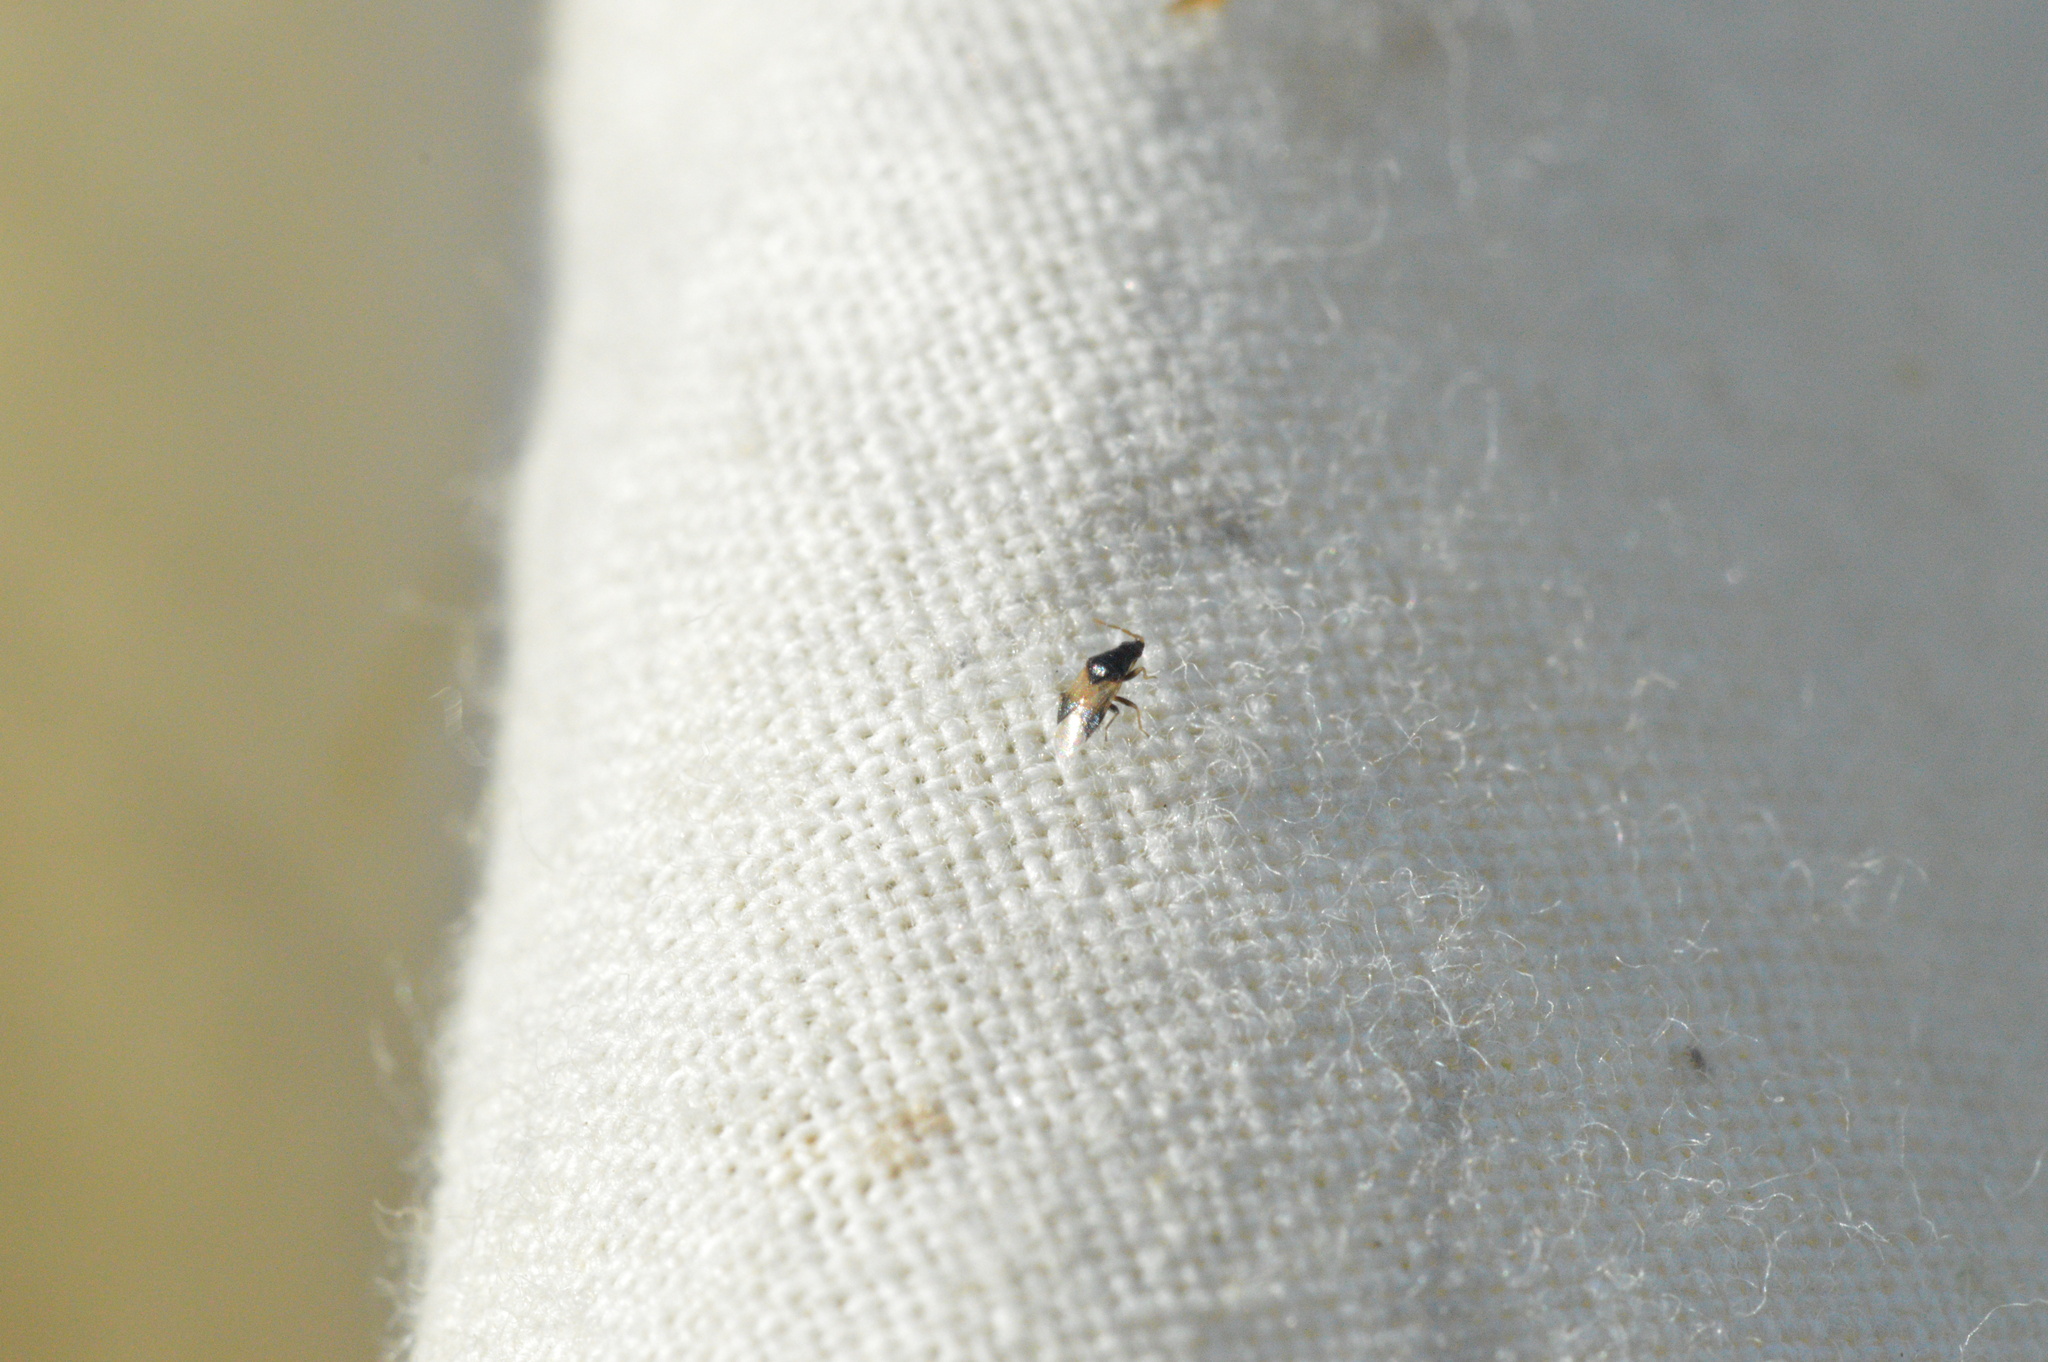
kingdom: Animalia
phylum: Arthropoda
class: Insecta
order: Hemiptera
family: Anthocoridae
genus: Orius
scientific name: Orius insidiosus
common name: Insidious flower bug
